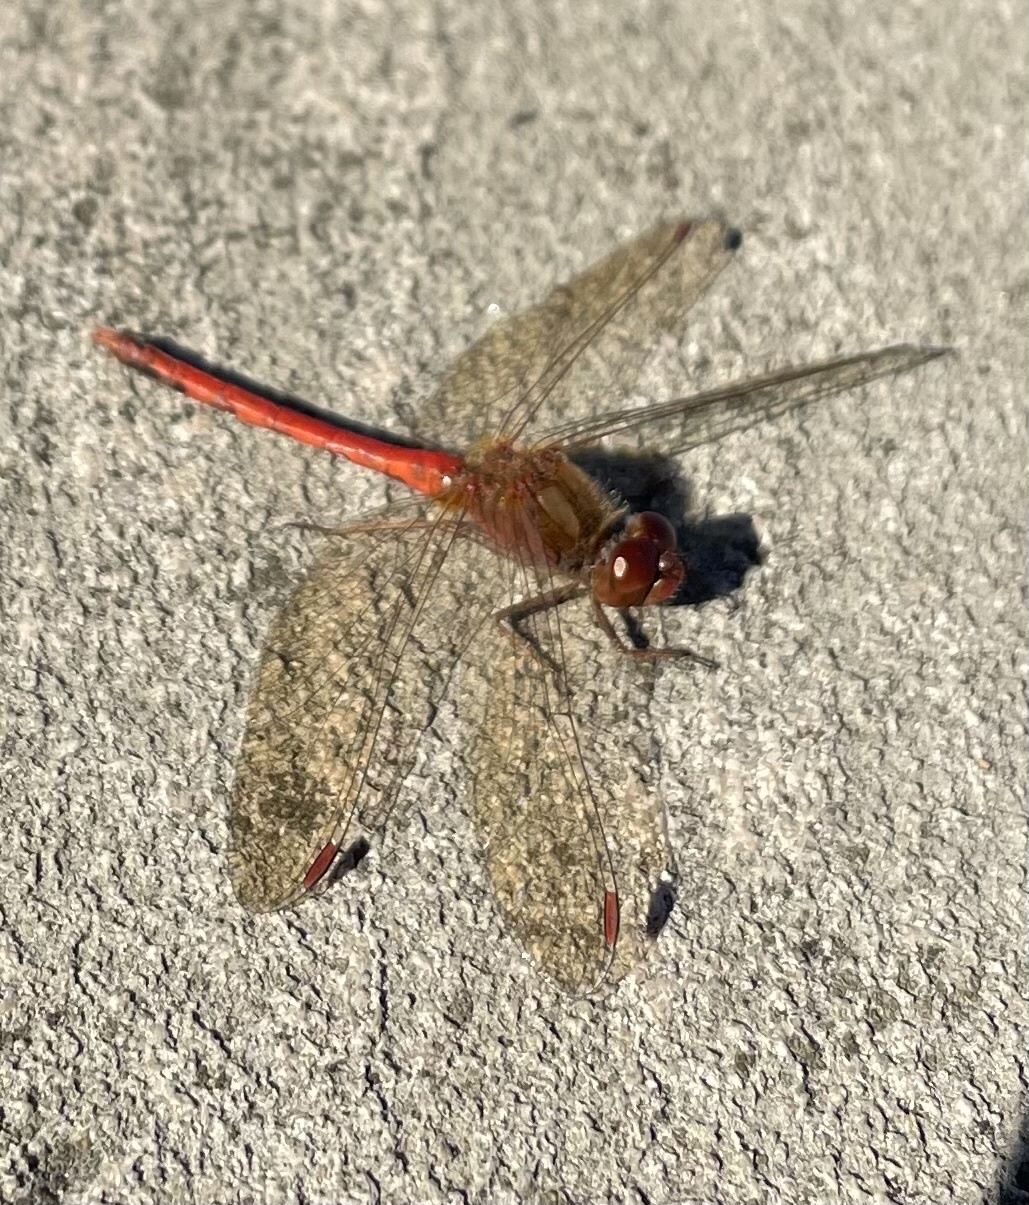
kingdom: Animalia
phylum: Arthropoda
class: Insecta
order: Odonata
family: Libellulidae
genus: Sympetrum
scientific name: Sympetrum vicinum
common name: Autumn meadowhawk
